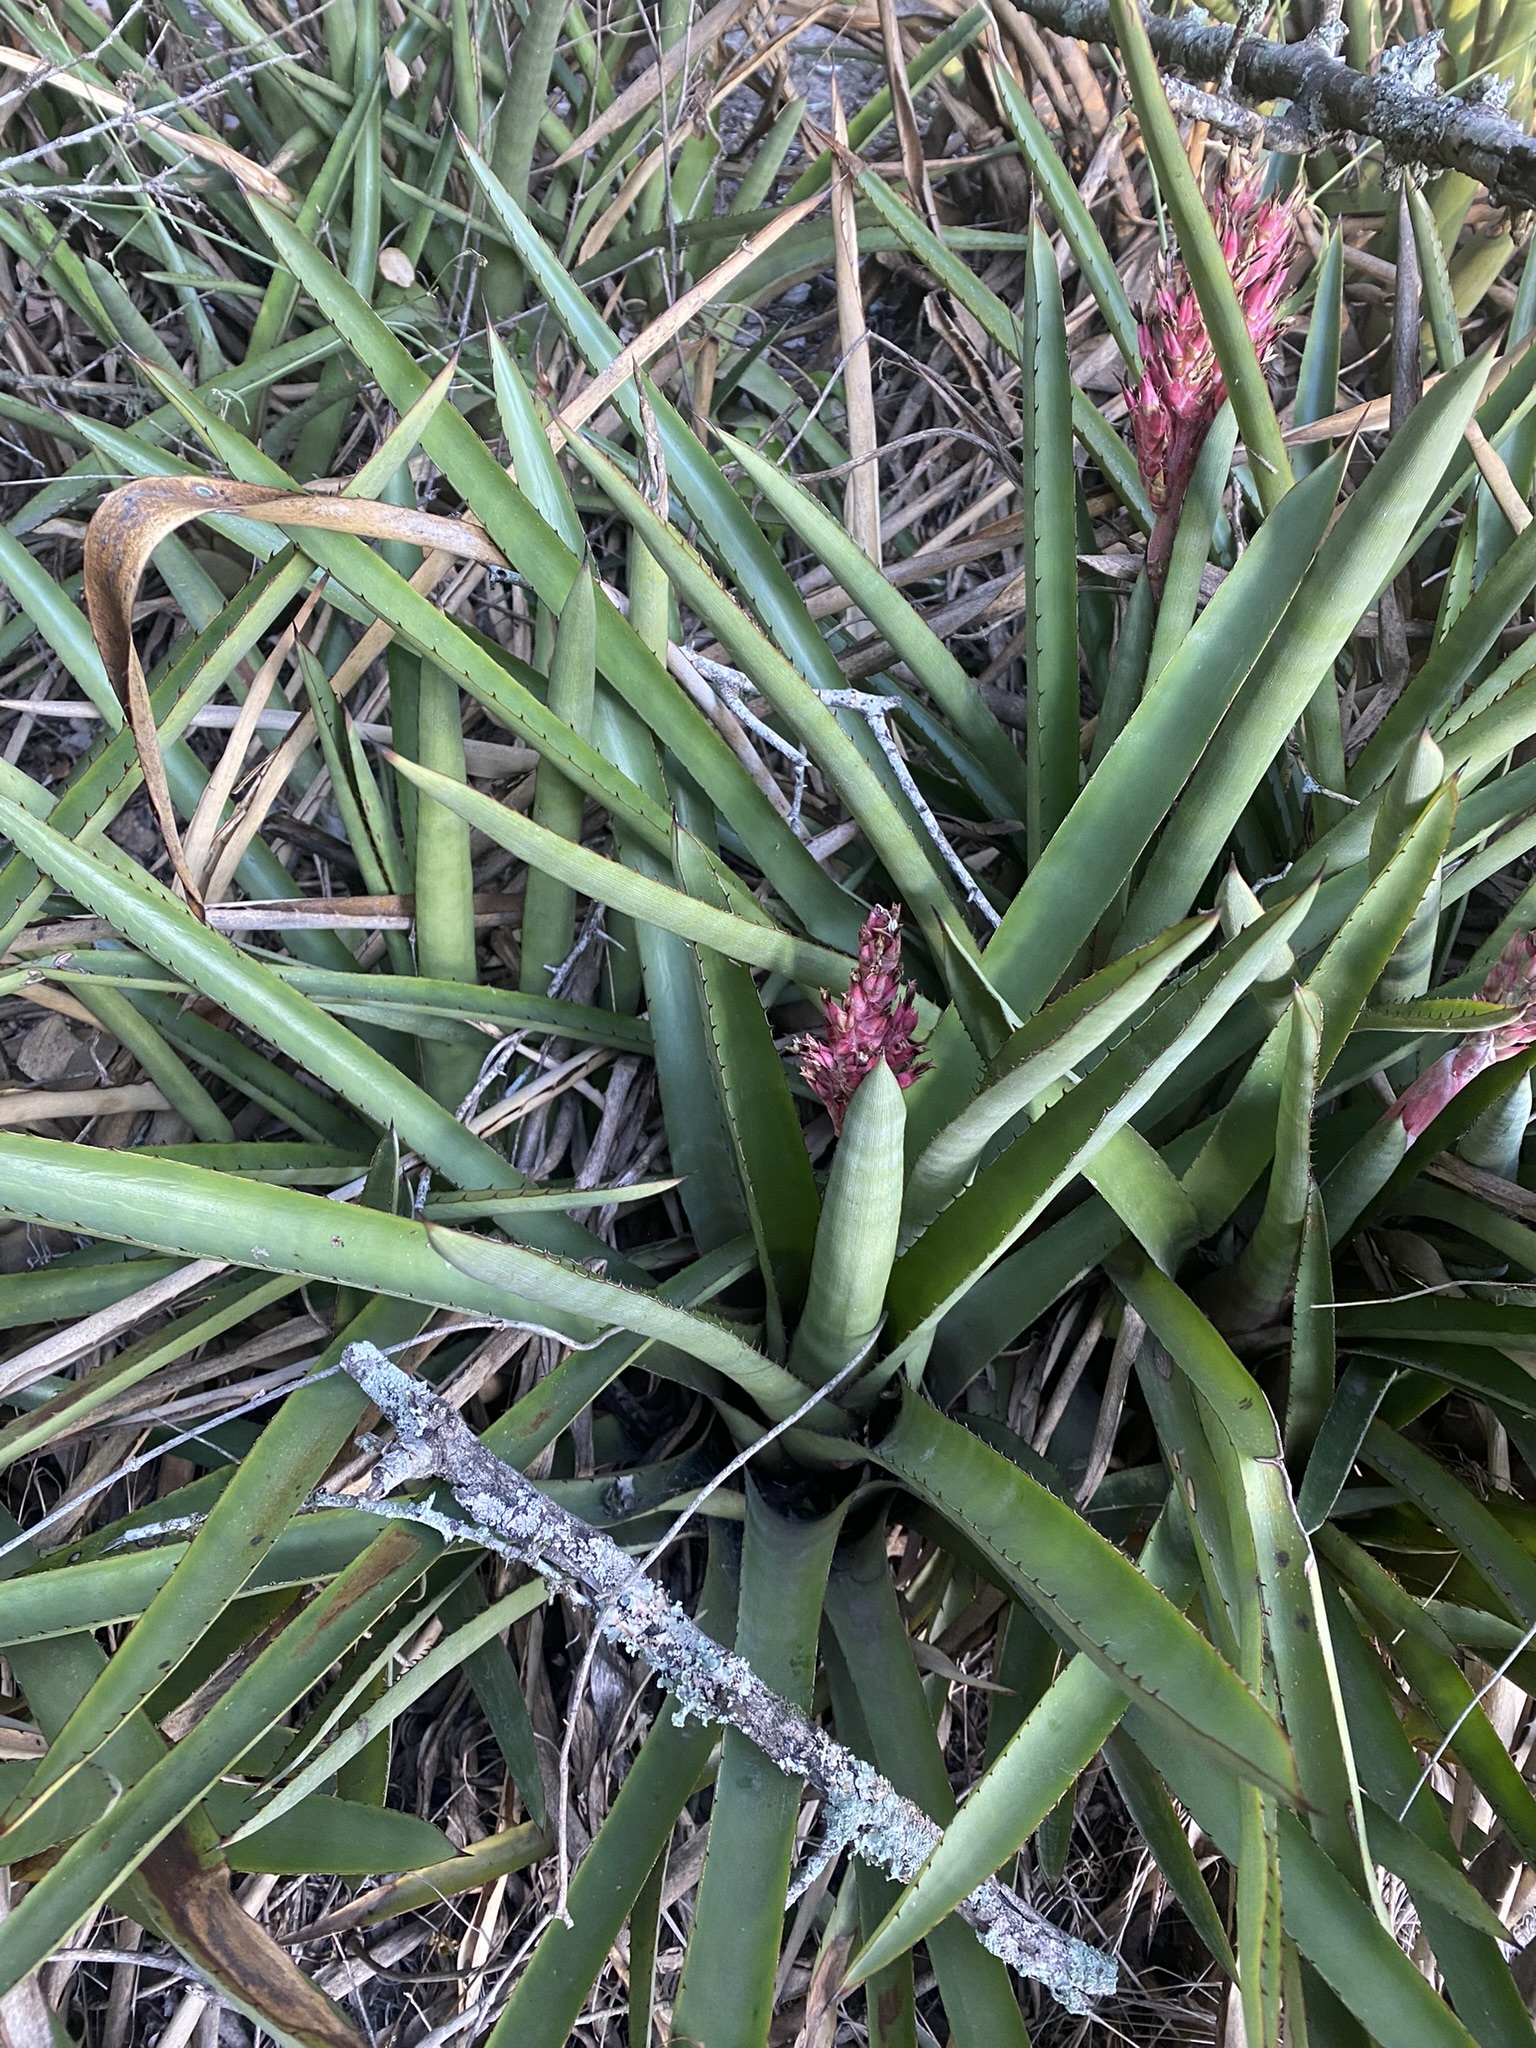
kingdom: Plantae
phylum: Tracheophyta
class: Liliopsida
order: Poales
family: Bromeliaceae
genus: Aechmea
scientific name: Aechmea distichantha
